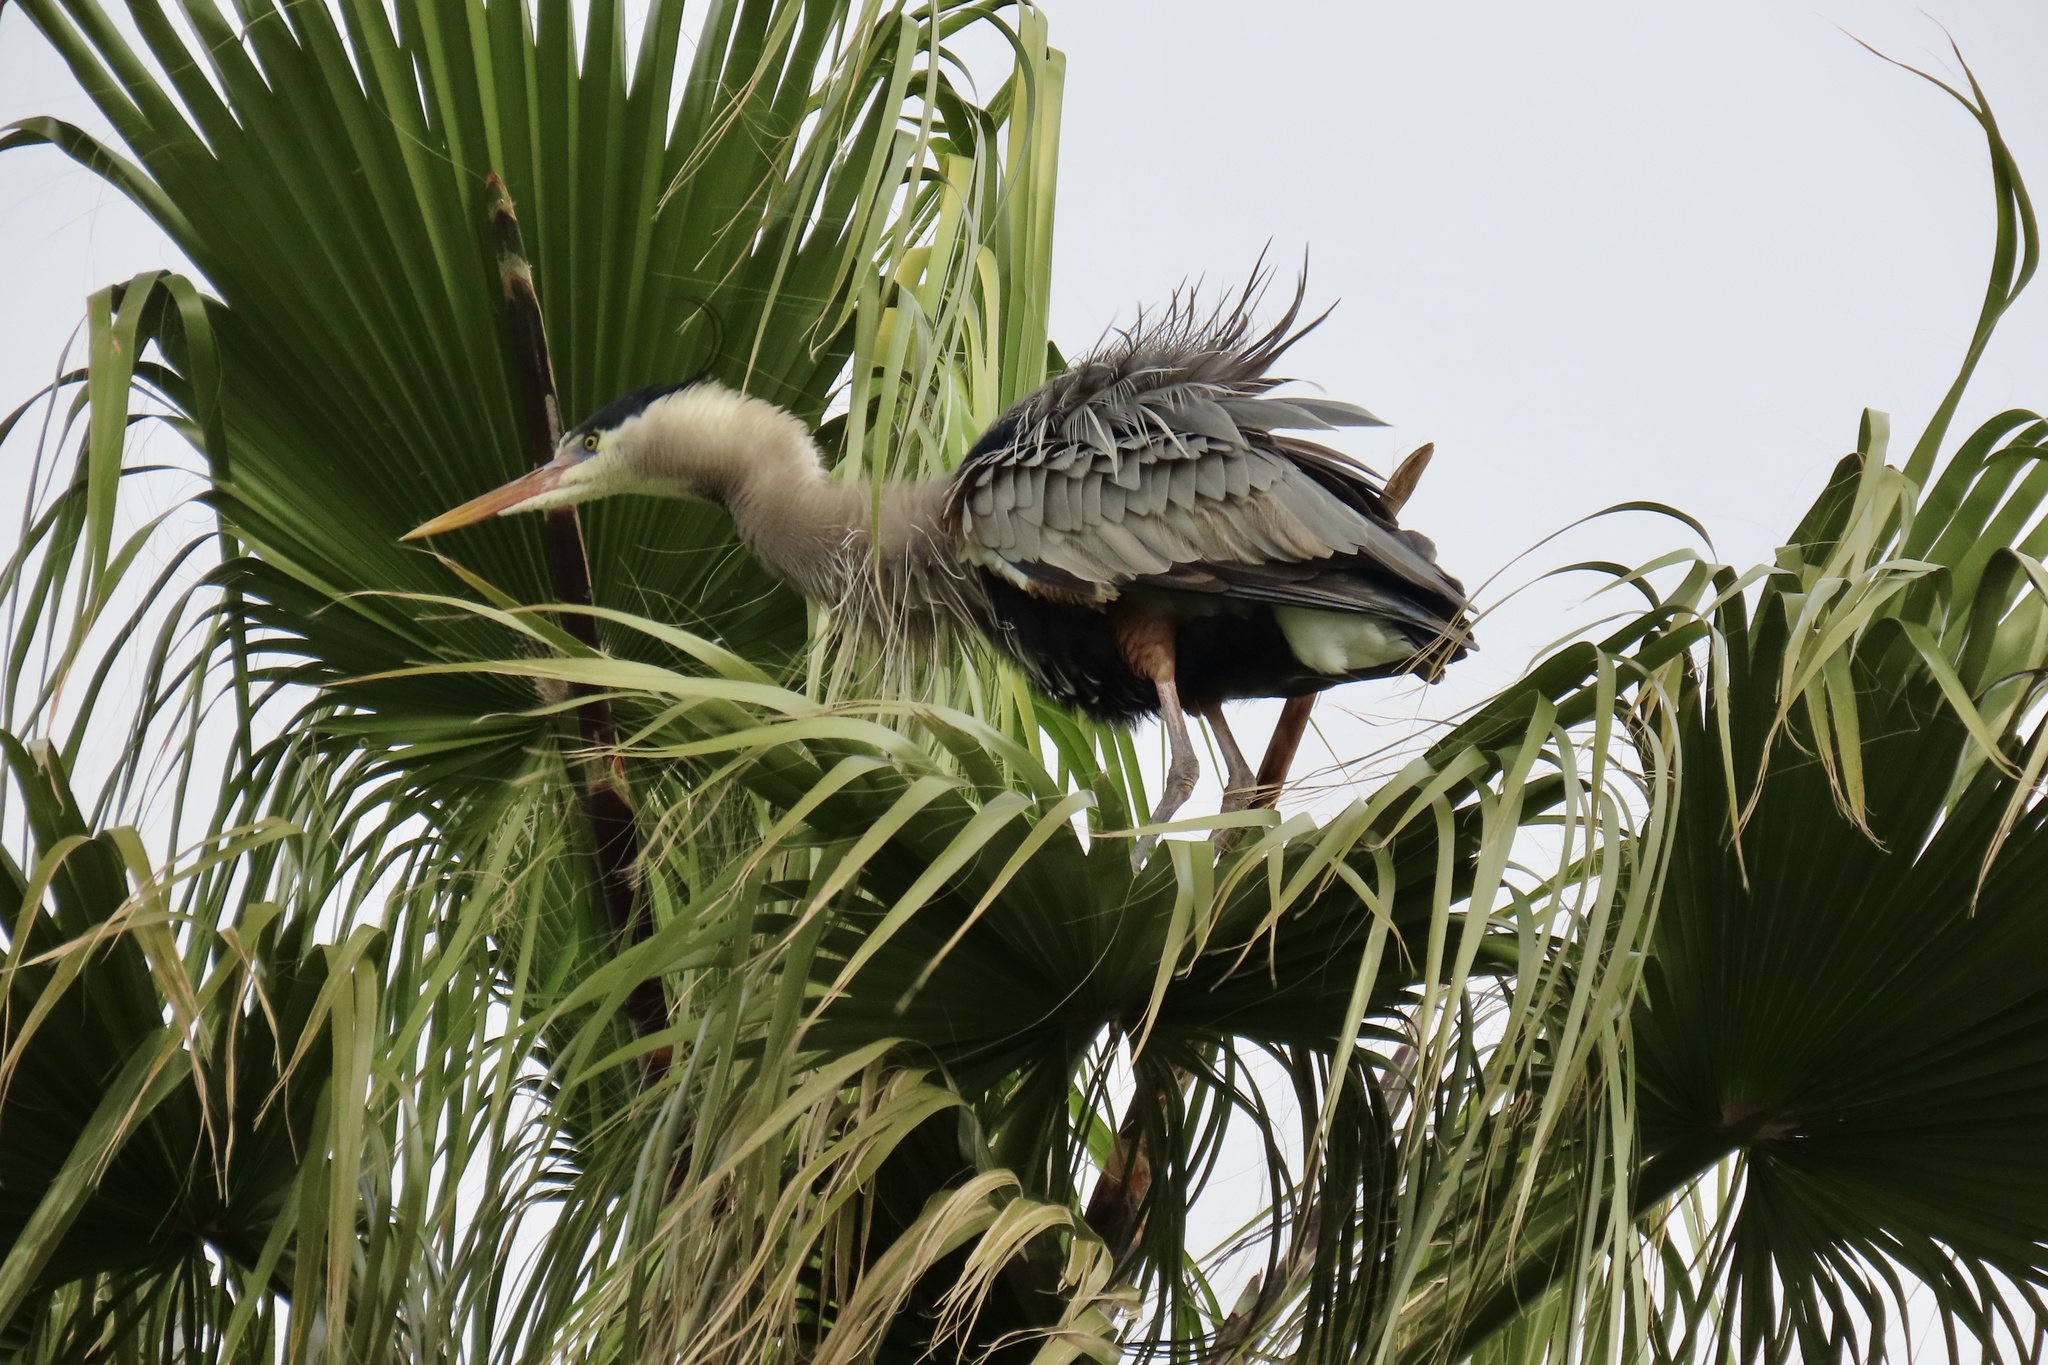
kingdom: Animalia
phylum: Chordata
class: Aves
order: Pelecaniformes
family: Ardeidae
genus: Ardea
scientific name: Ardea herodias
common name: Great blue heron
